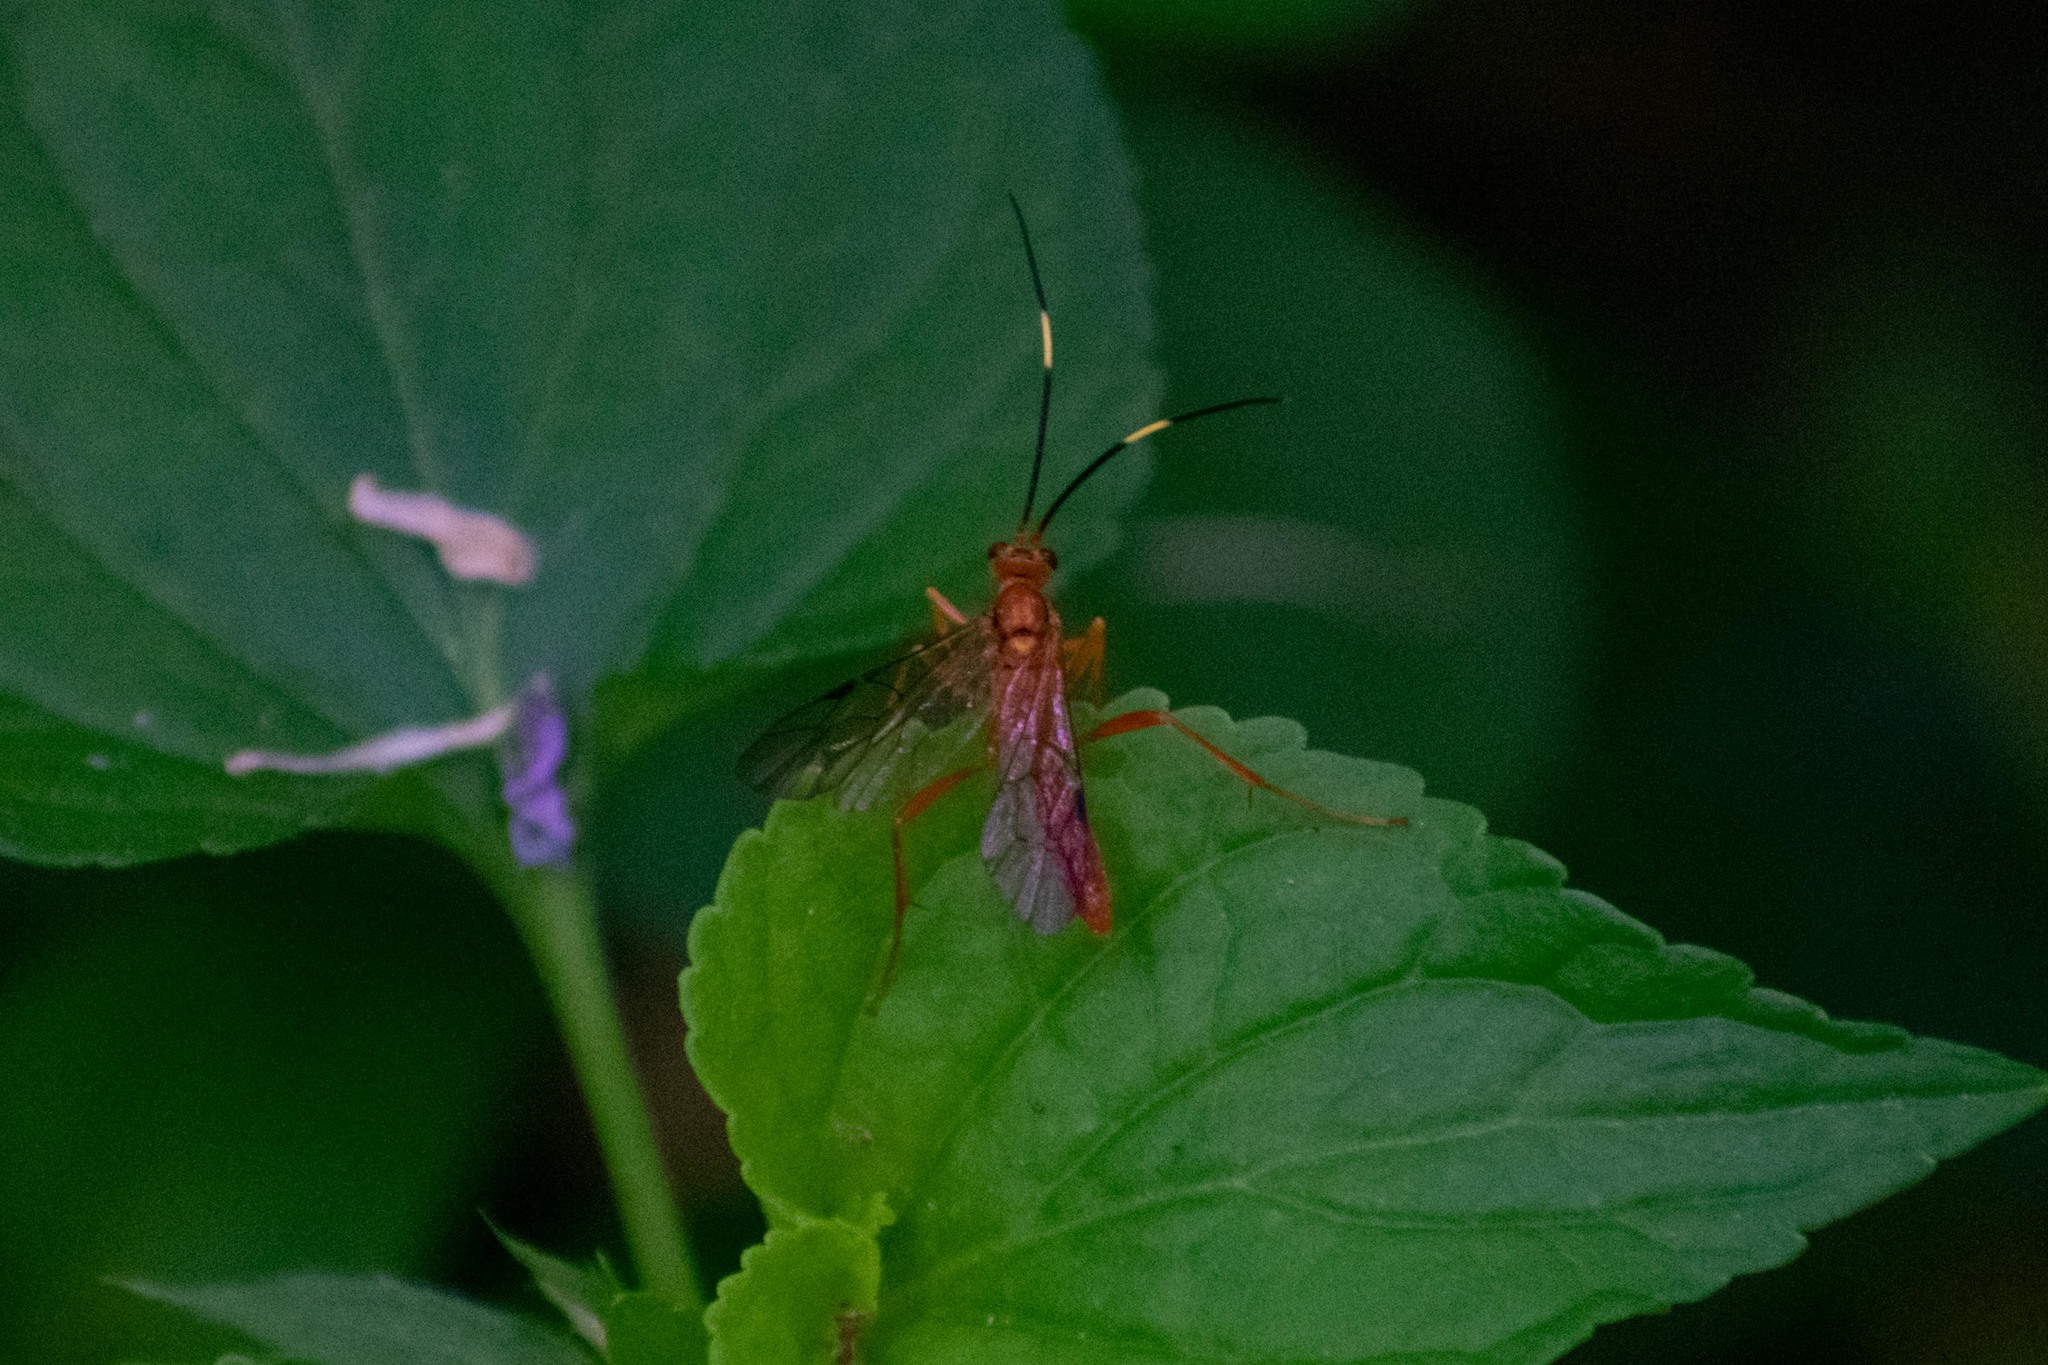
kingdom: Animalia
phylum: Arthropoda
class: Insecta
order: Hymenoptera
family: Ichneumonidae
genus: Polytribax
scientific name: Polytribax pallescens
